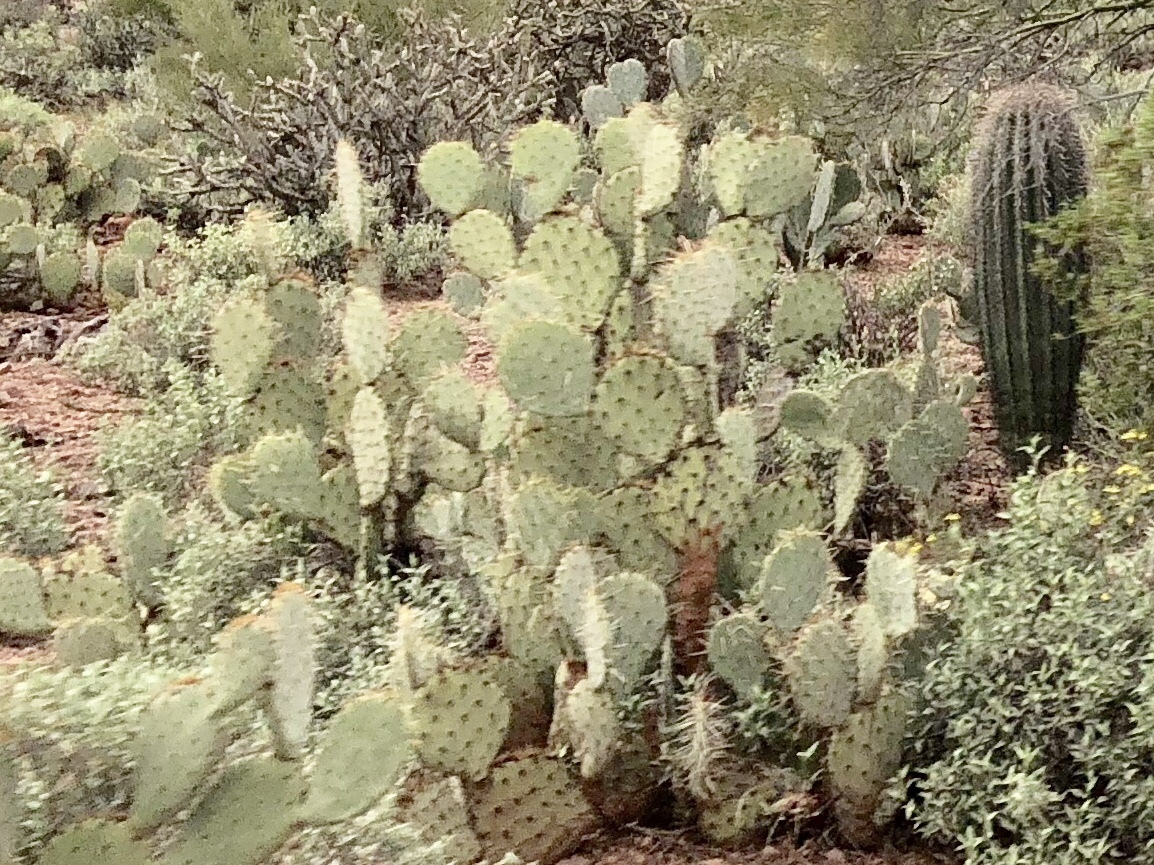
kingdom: Plantae
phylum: Tracheophyta
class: Magnoliopsida
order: Caryophyllales
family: Cactaceae
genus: Opuntia
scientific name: Opuntia engelmannii
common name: Cactus-apple
